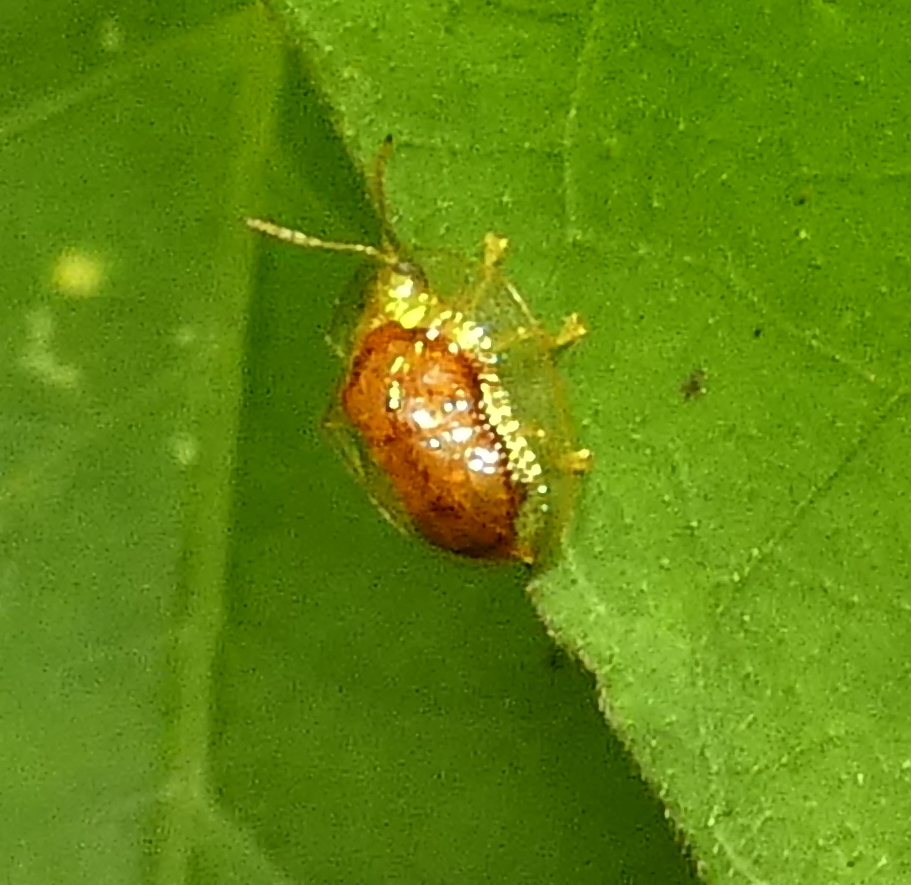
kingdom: Animalia
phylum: Arthropoda
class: Insecta
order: Coleoptera
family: Chrysomelidae
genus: Microctenochira
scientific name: Microctenochira quadrata
